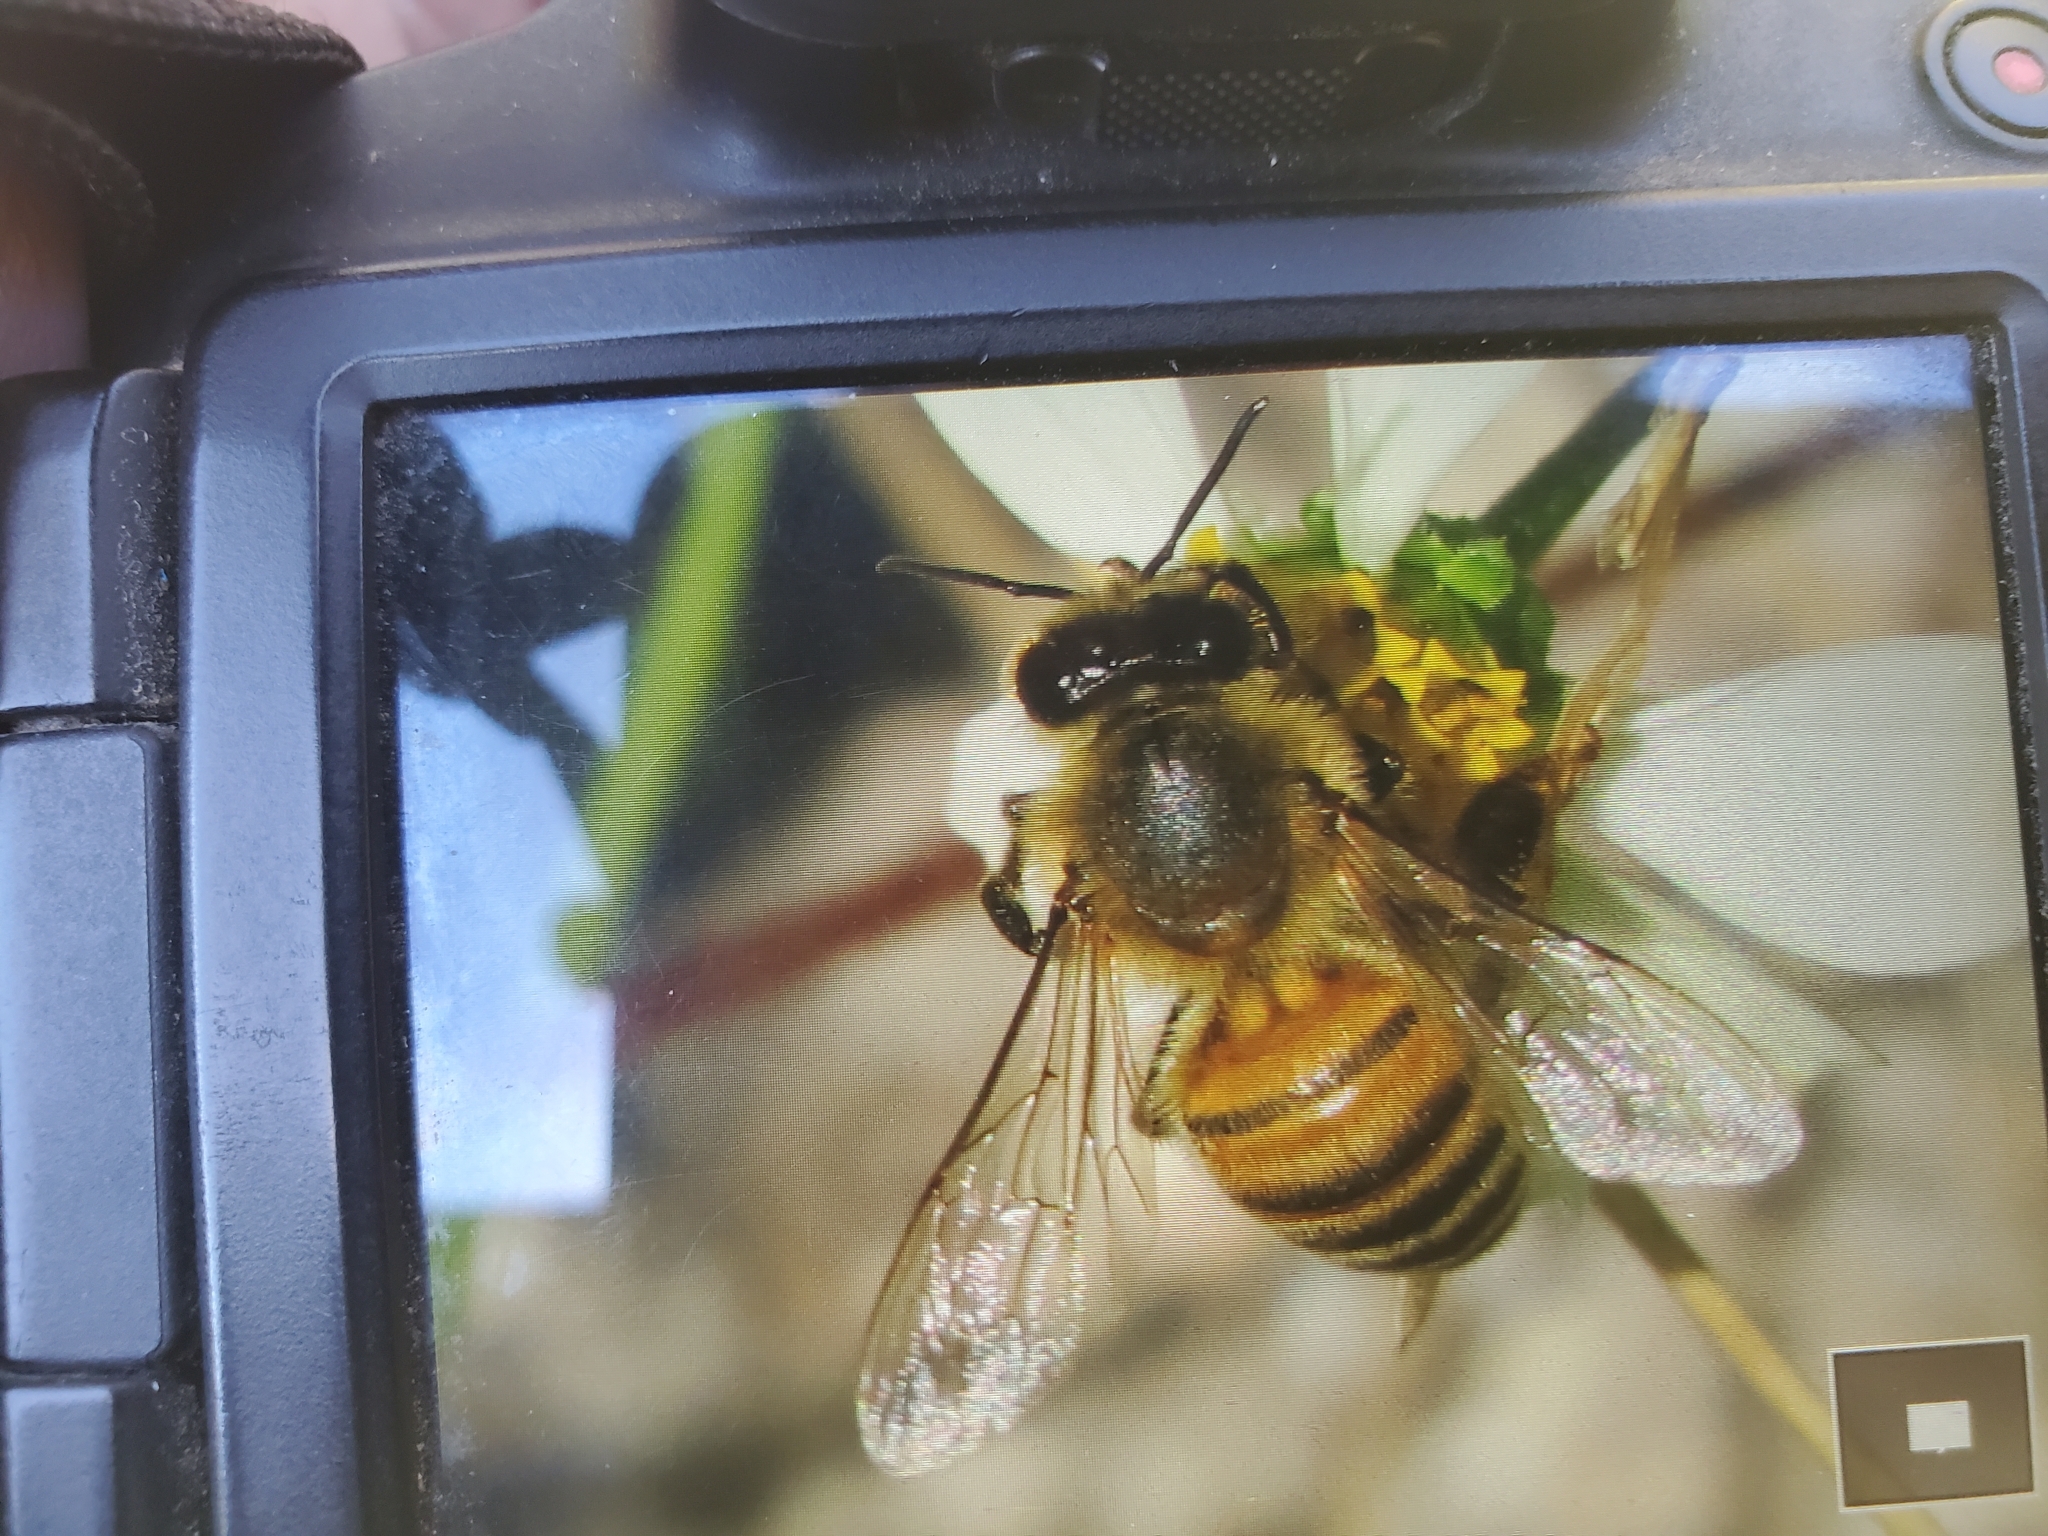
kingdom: Animalia
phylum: Arthropoda
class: Insecta
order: Hymenoptera
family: Apidae
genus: Apis
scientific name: Apis mellifera
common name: Honey bee
